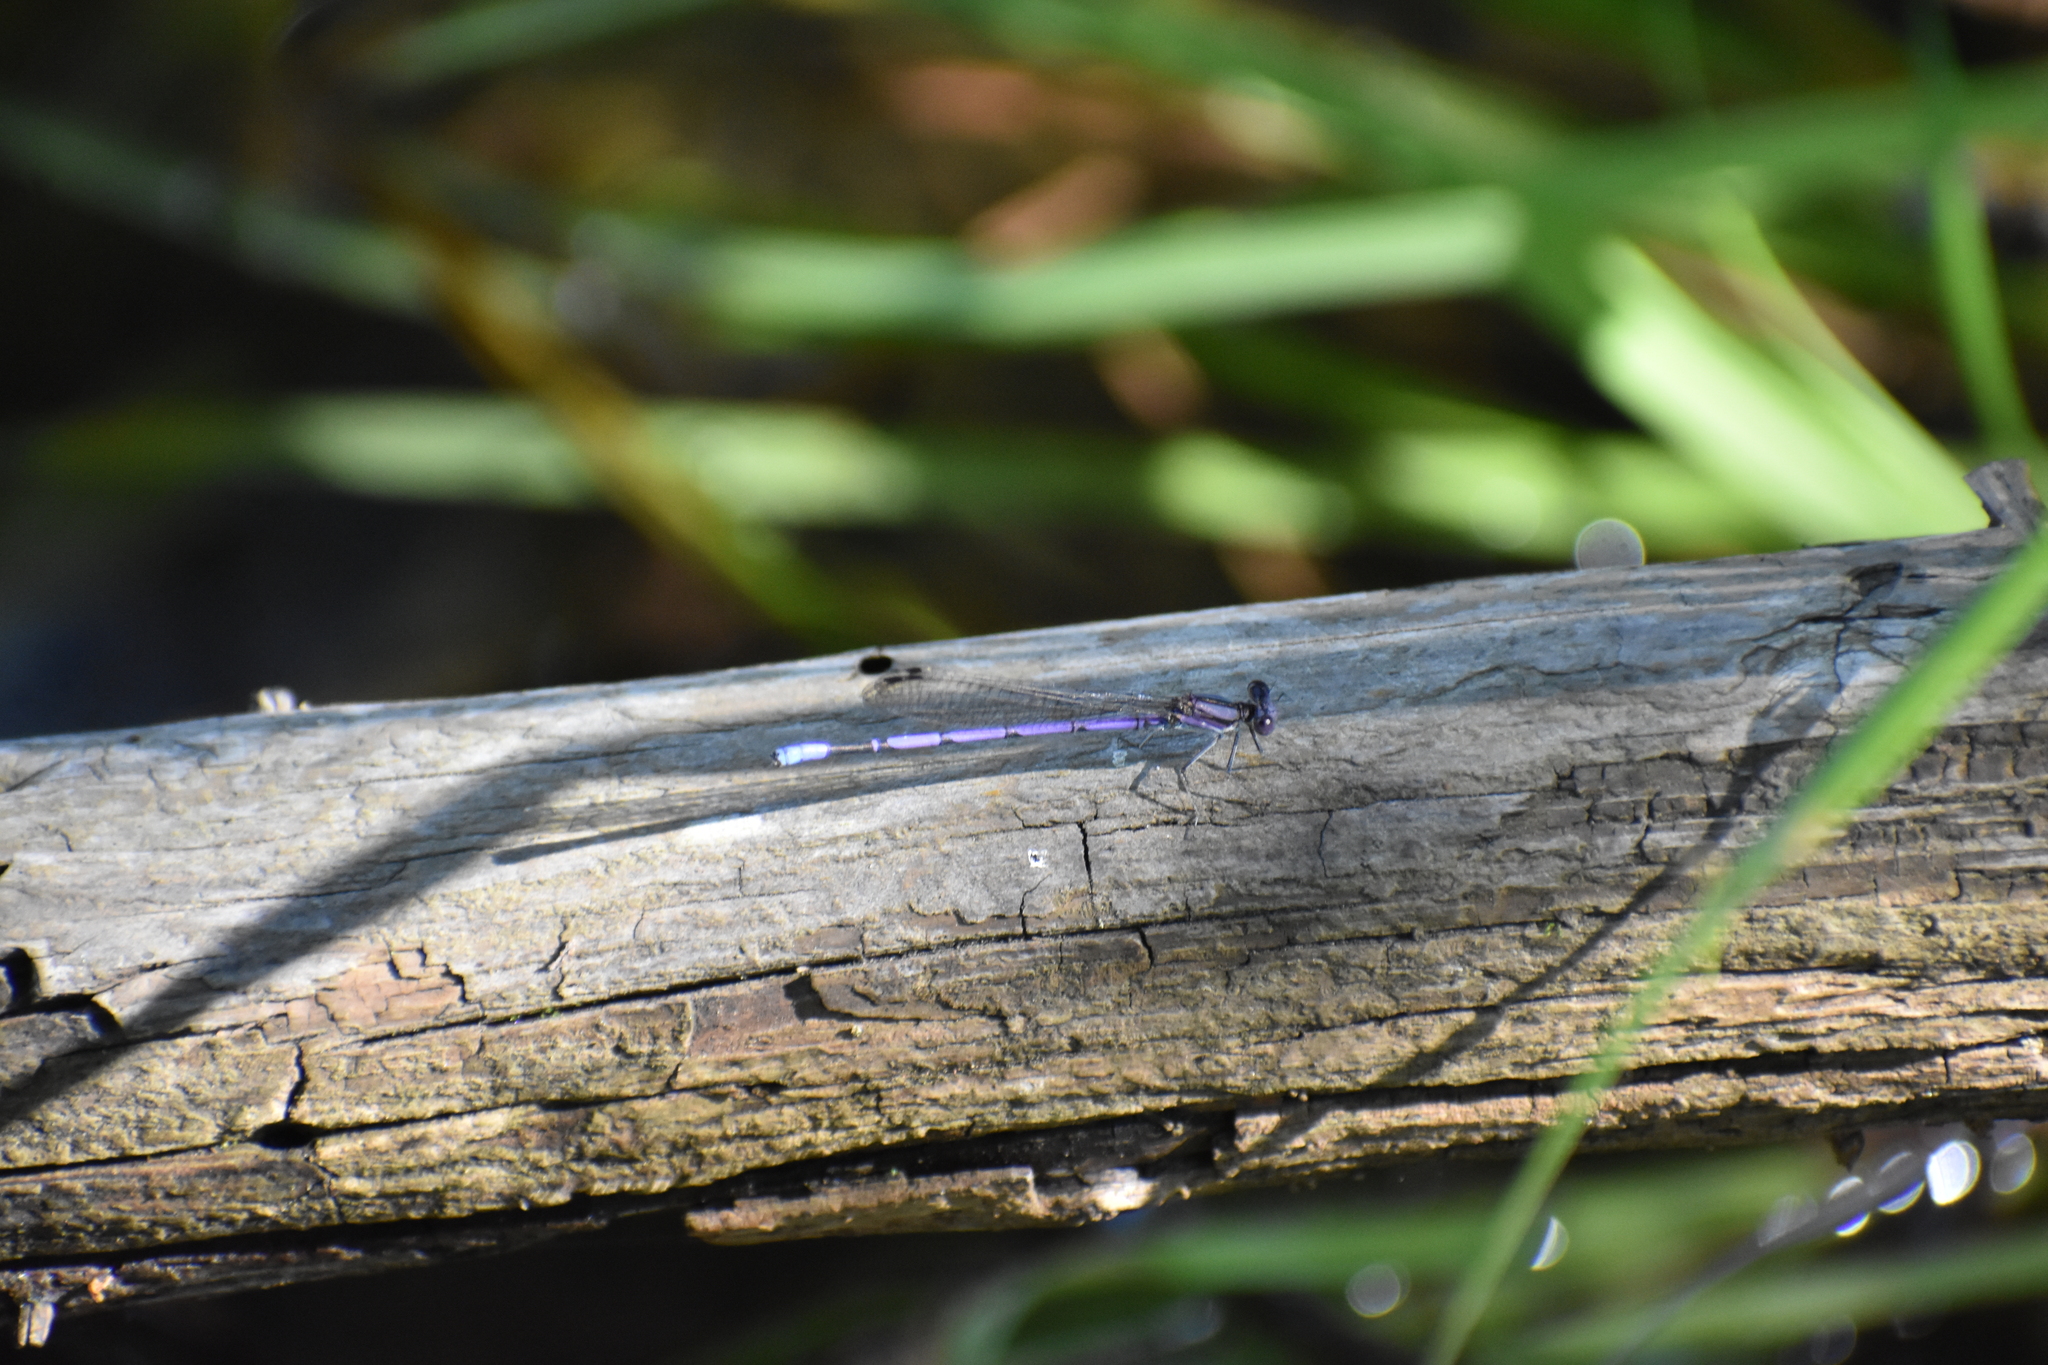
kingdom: Animalia
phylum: Arthropoda
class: Insecta
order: Odonata
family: Coenagrionidae
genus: Argia
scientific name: Argia fumipennis
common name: Variable dancer
